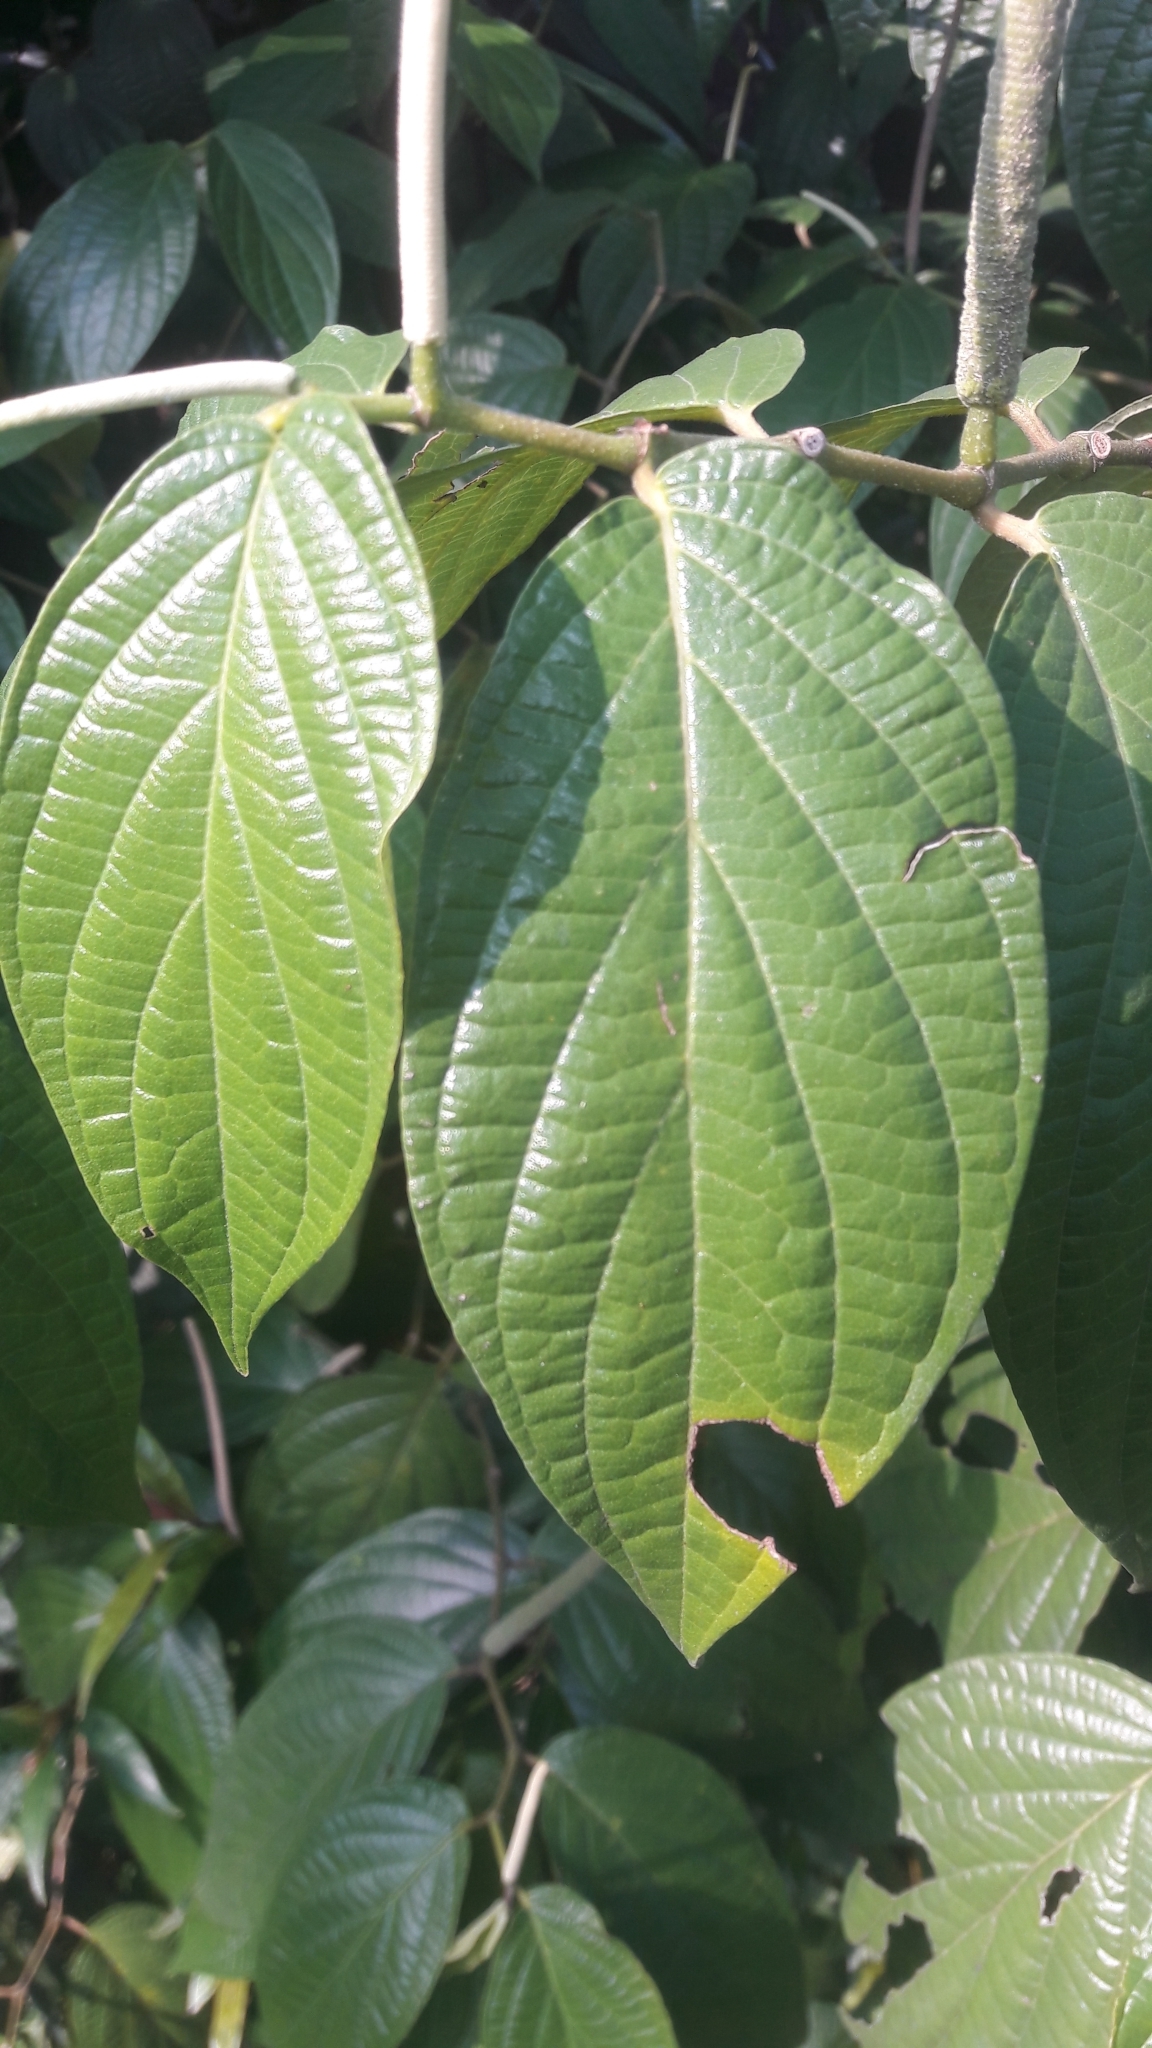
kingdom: Plantae
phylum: Tracheophyta
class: Magnoliopsida
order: Piperales
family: Piperaceae
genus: Piper
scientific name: Piper hispidum
